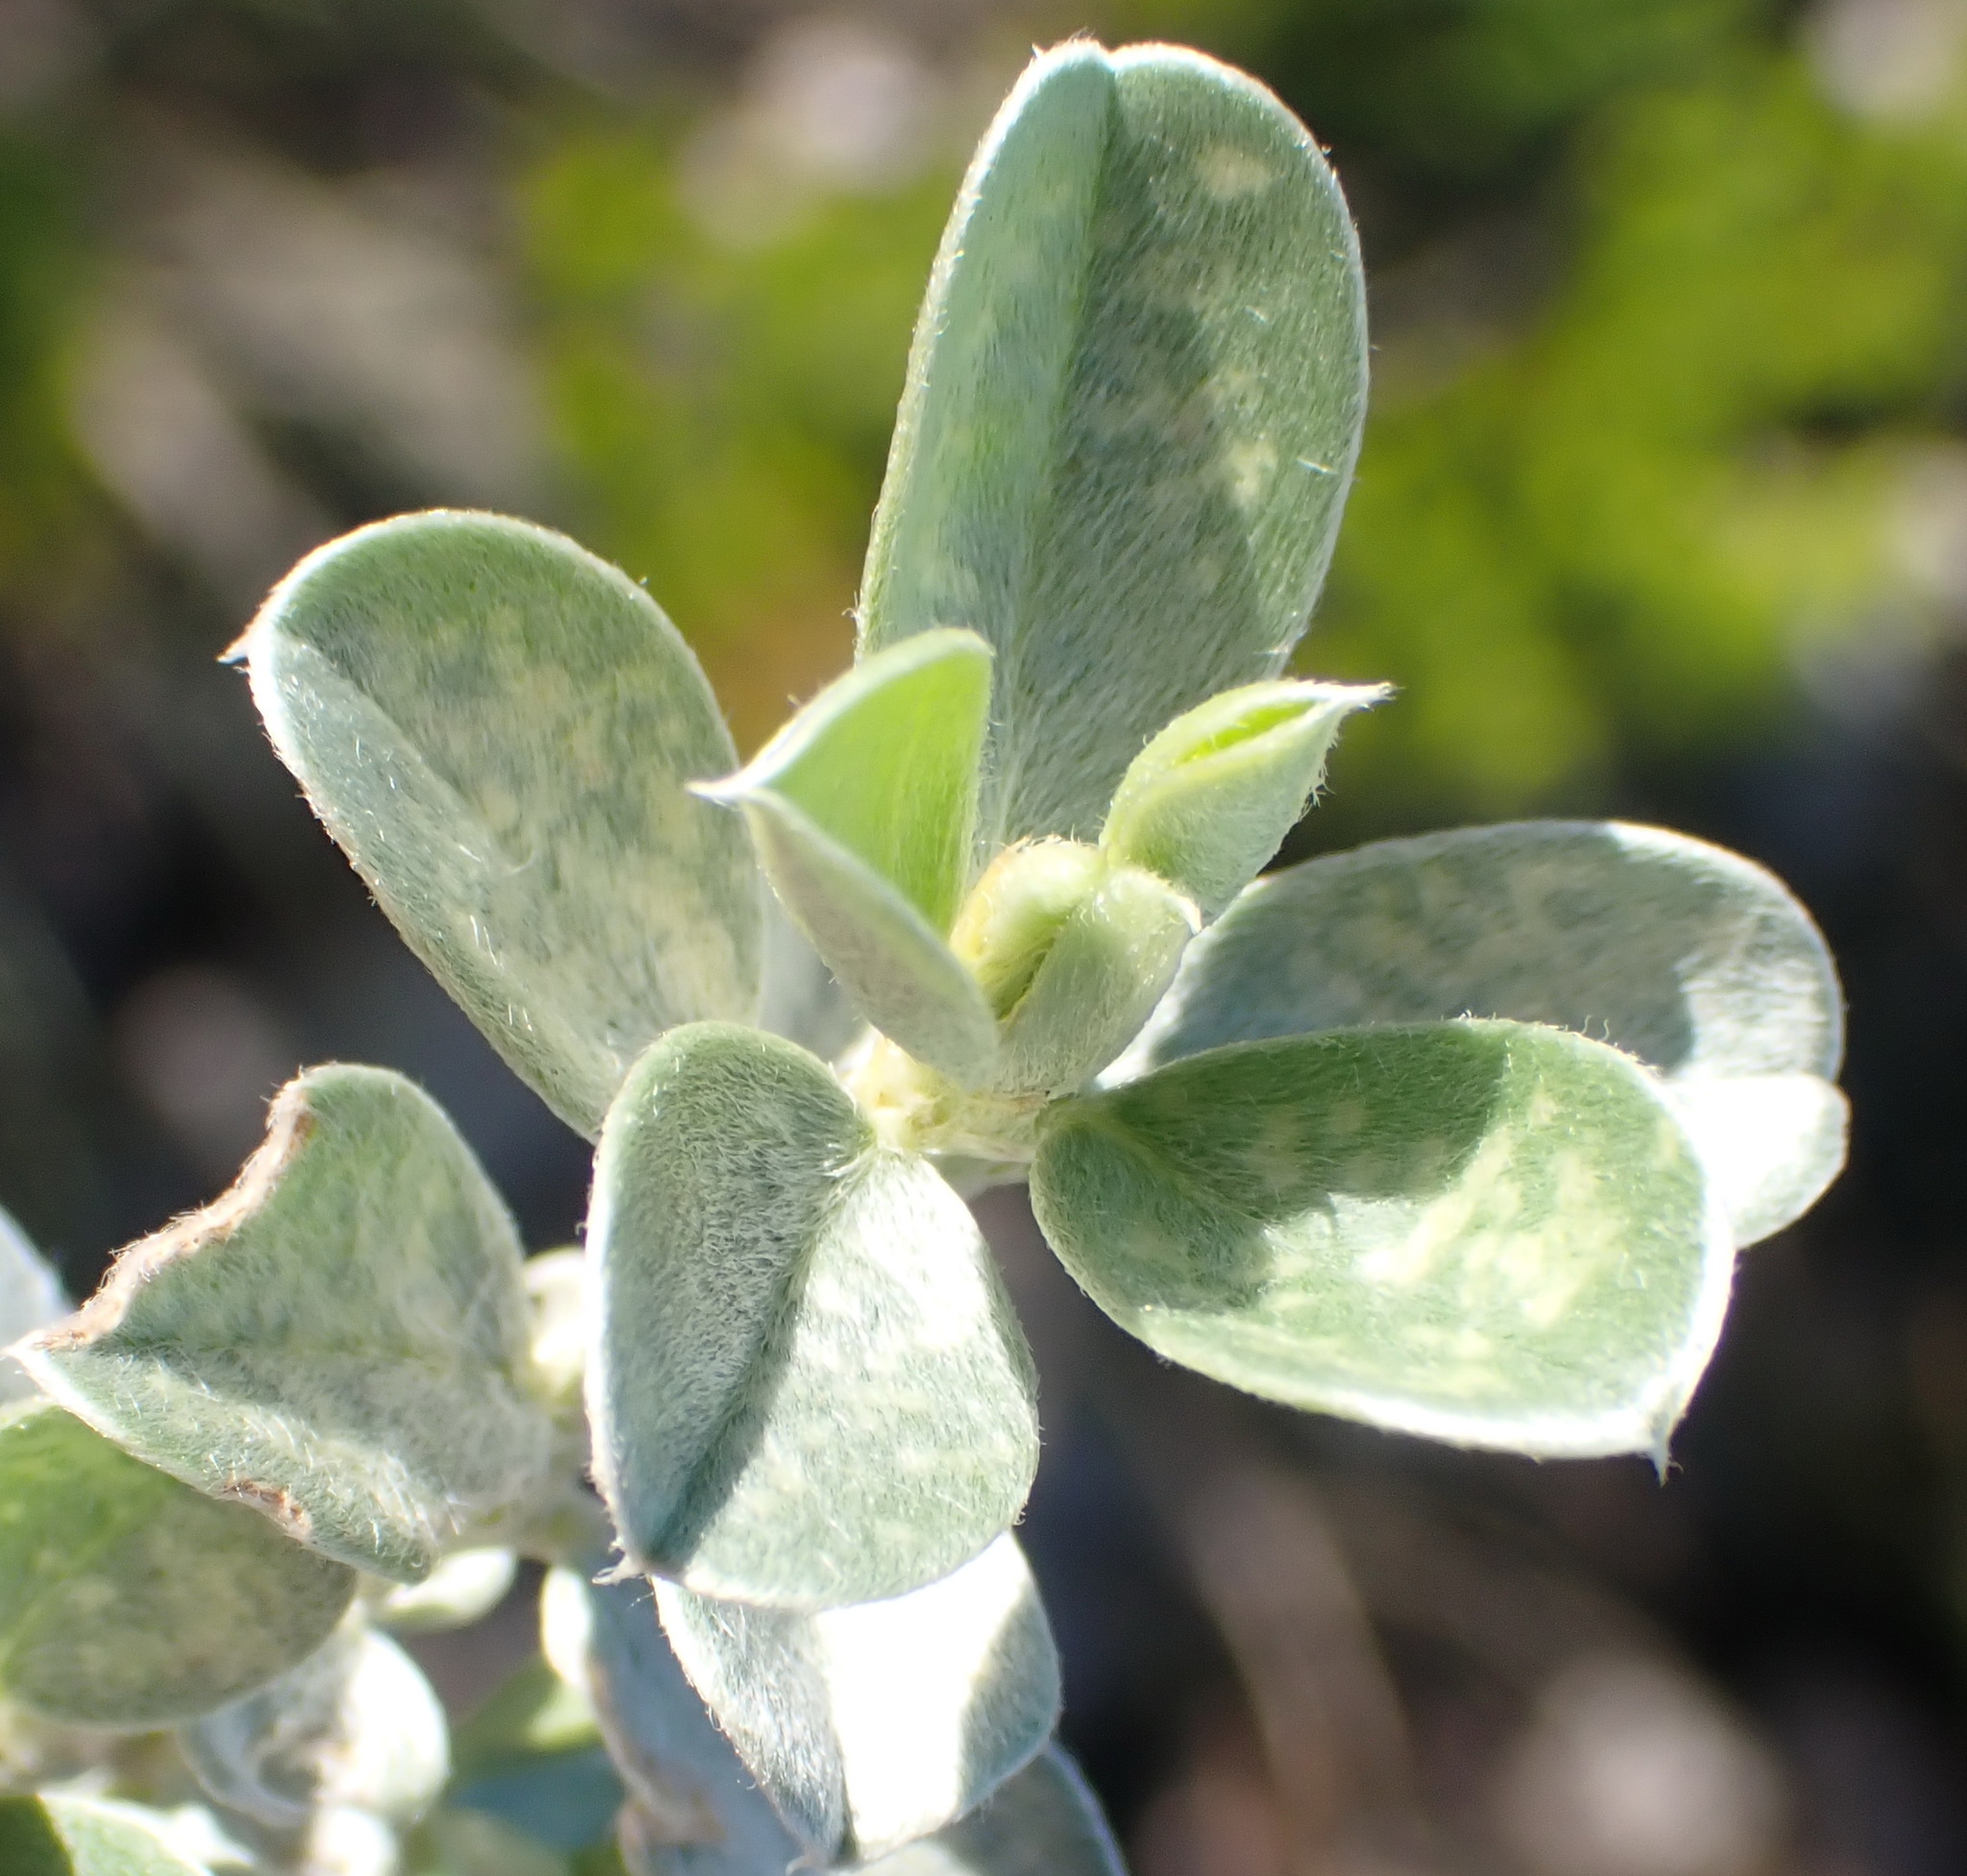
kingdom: Plantae
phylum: Tracheophyta
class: Magnoliopsida
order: Fabales
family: Fabaceae
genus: Podalyria
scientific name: Podalyria myrtillifolia
